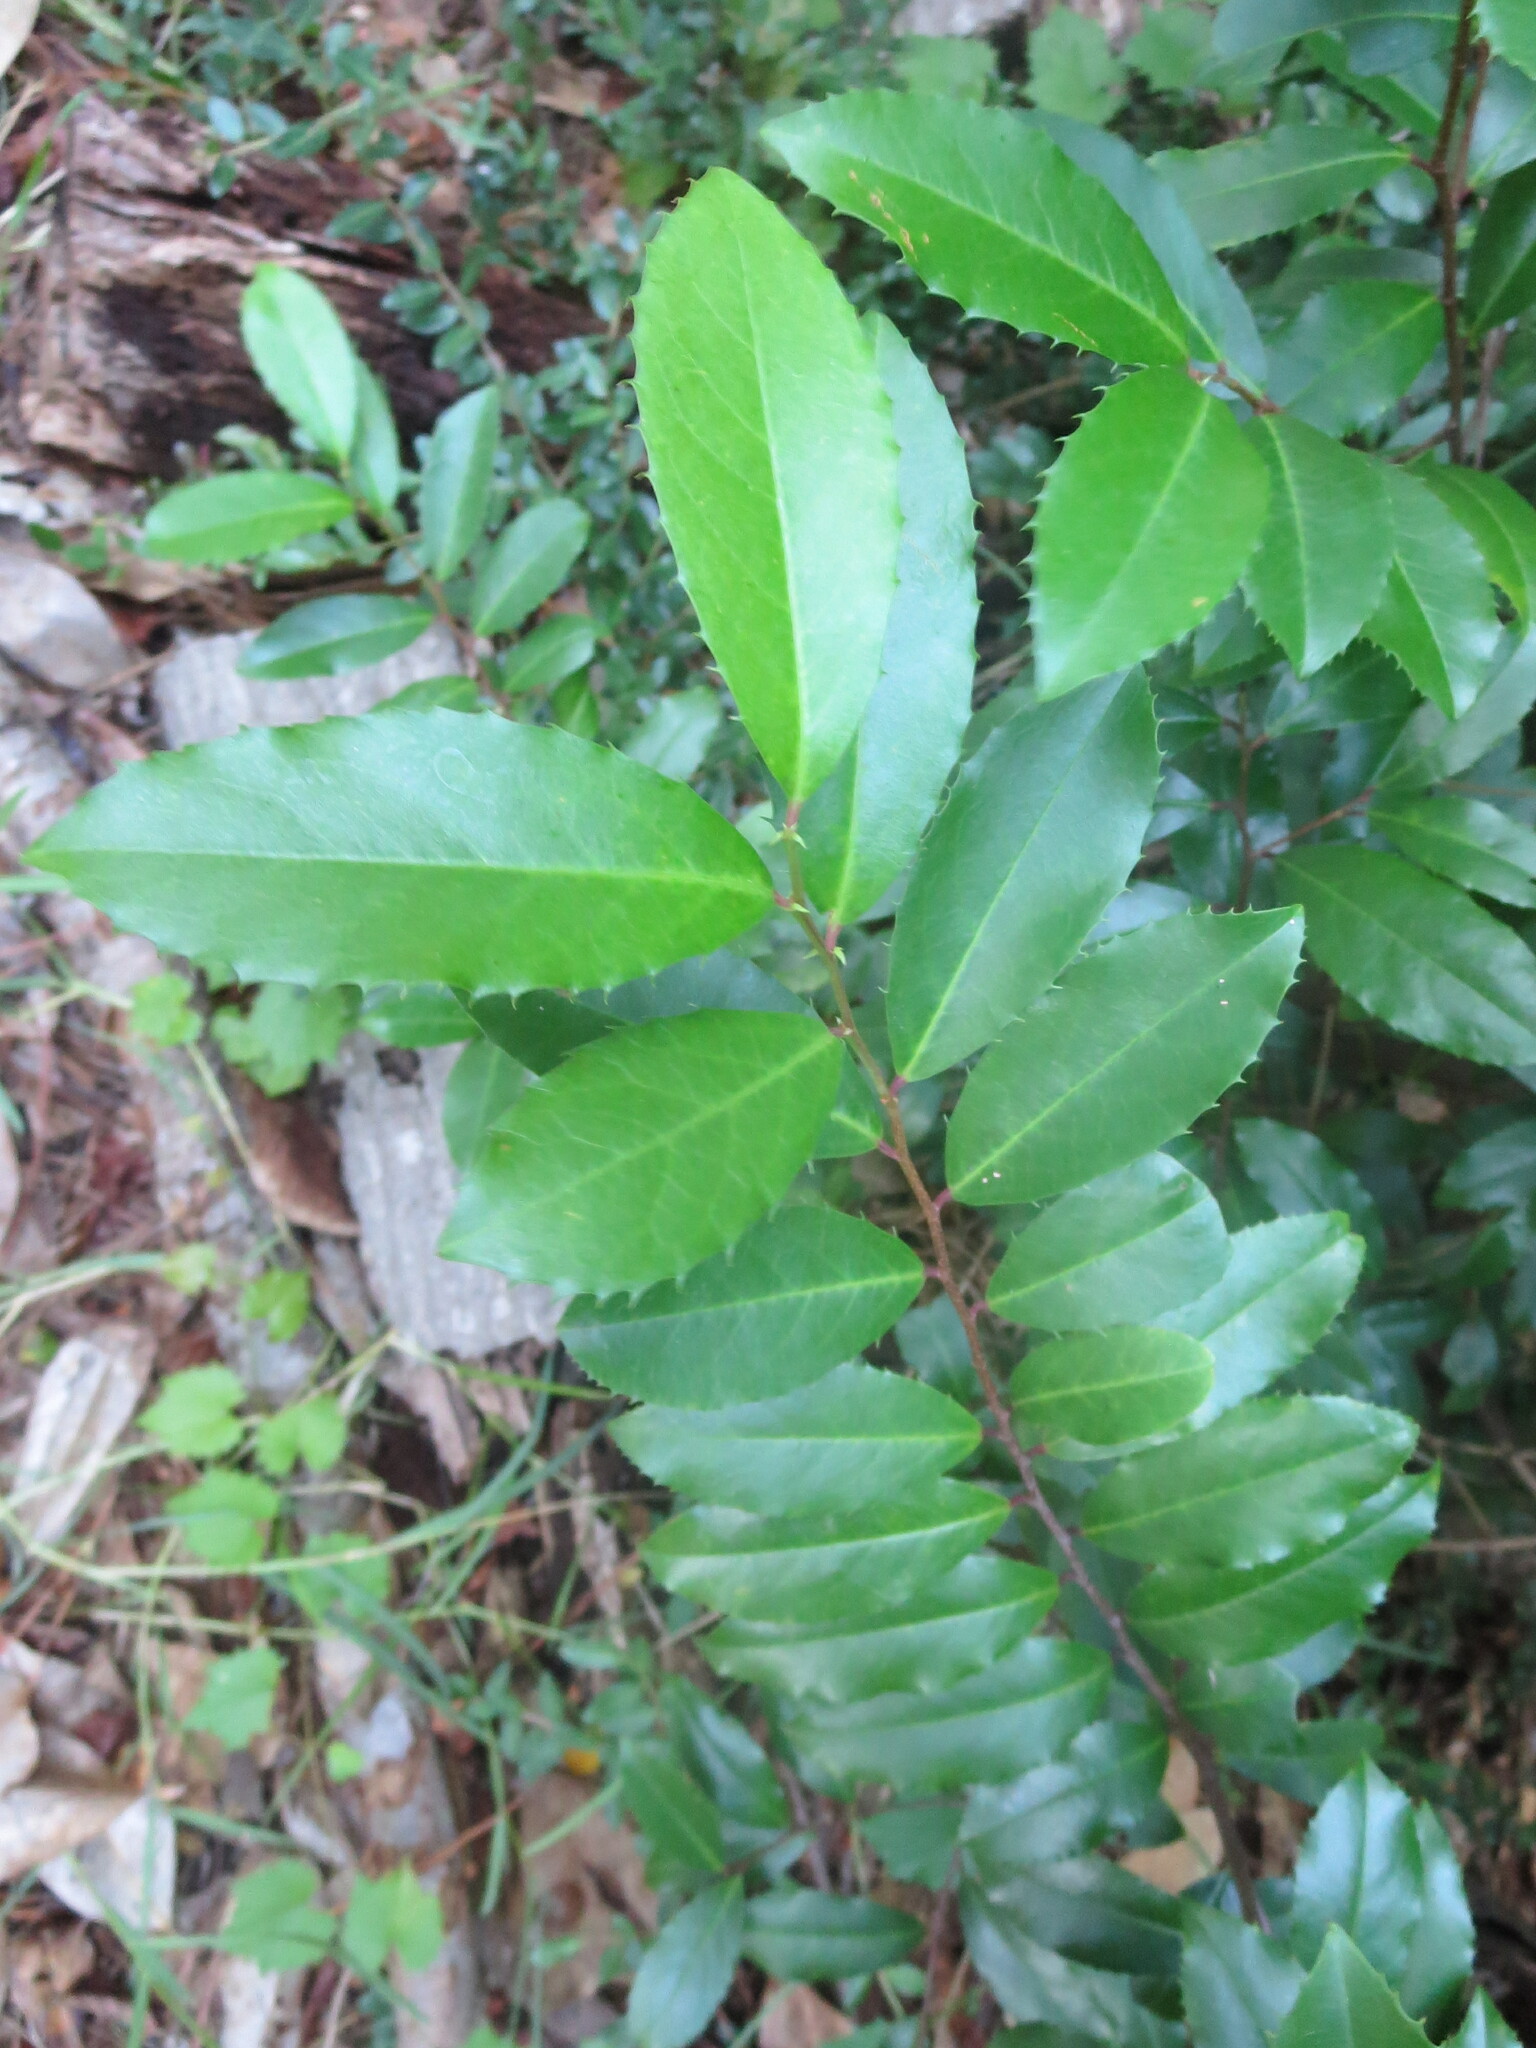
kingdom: Plantae
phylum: Tracheophyta
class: Magnoliopsida
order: Rosales
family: Rosaceae
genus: Prunus
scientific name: Prunus caroliniana
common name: Carolina laurel cherry
